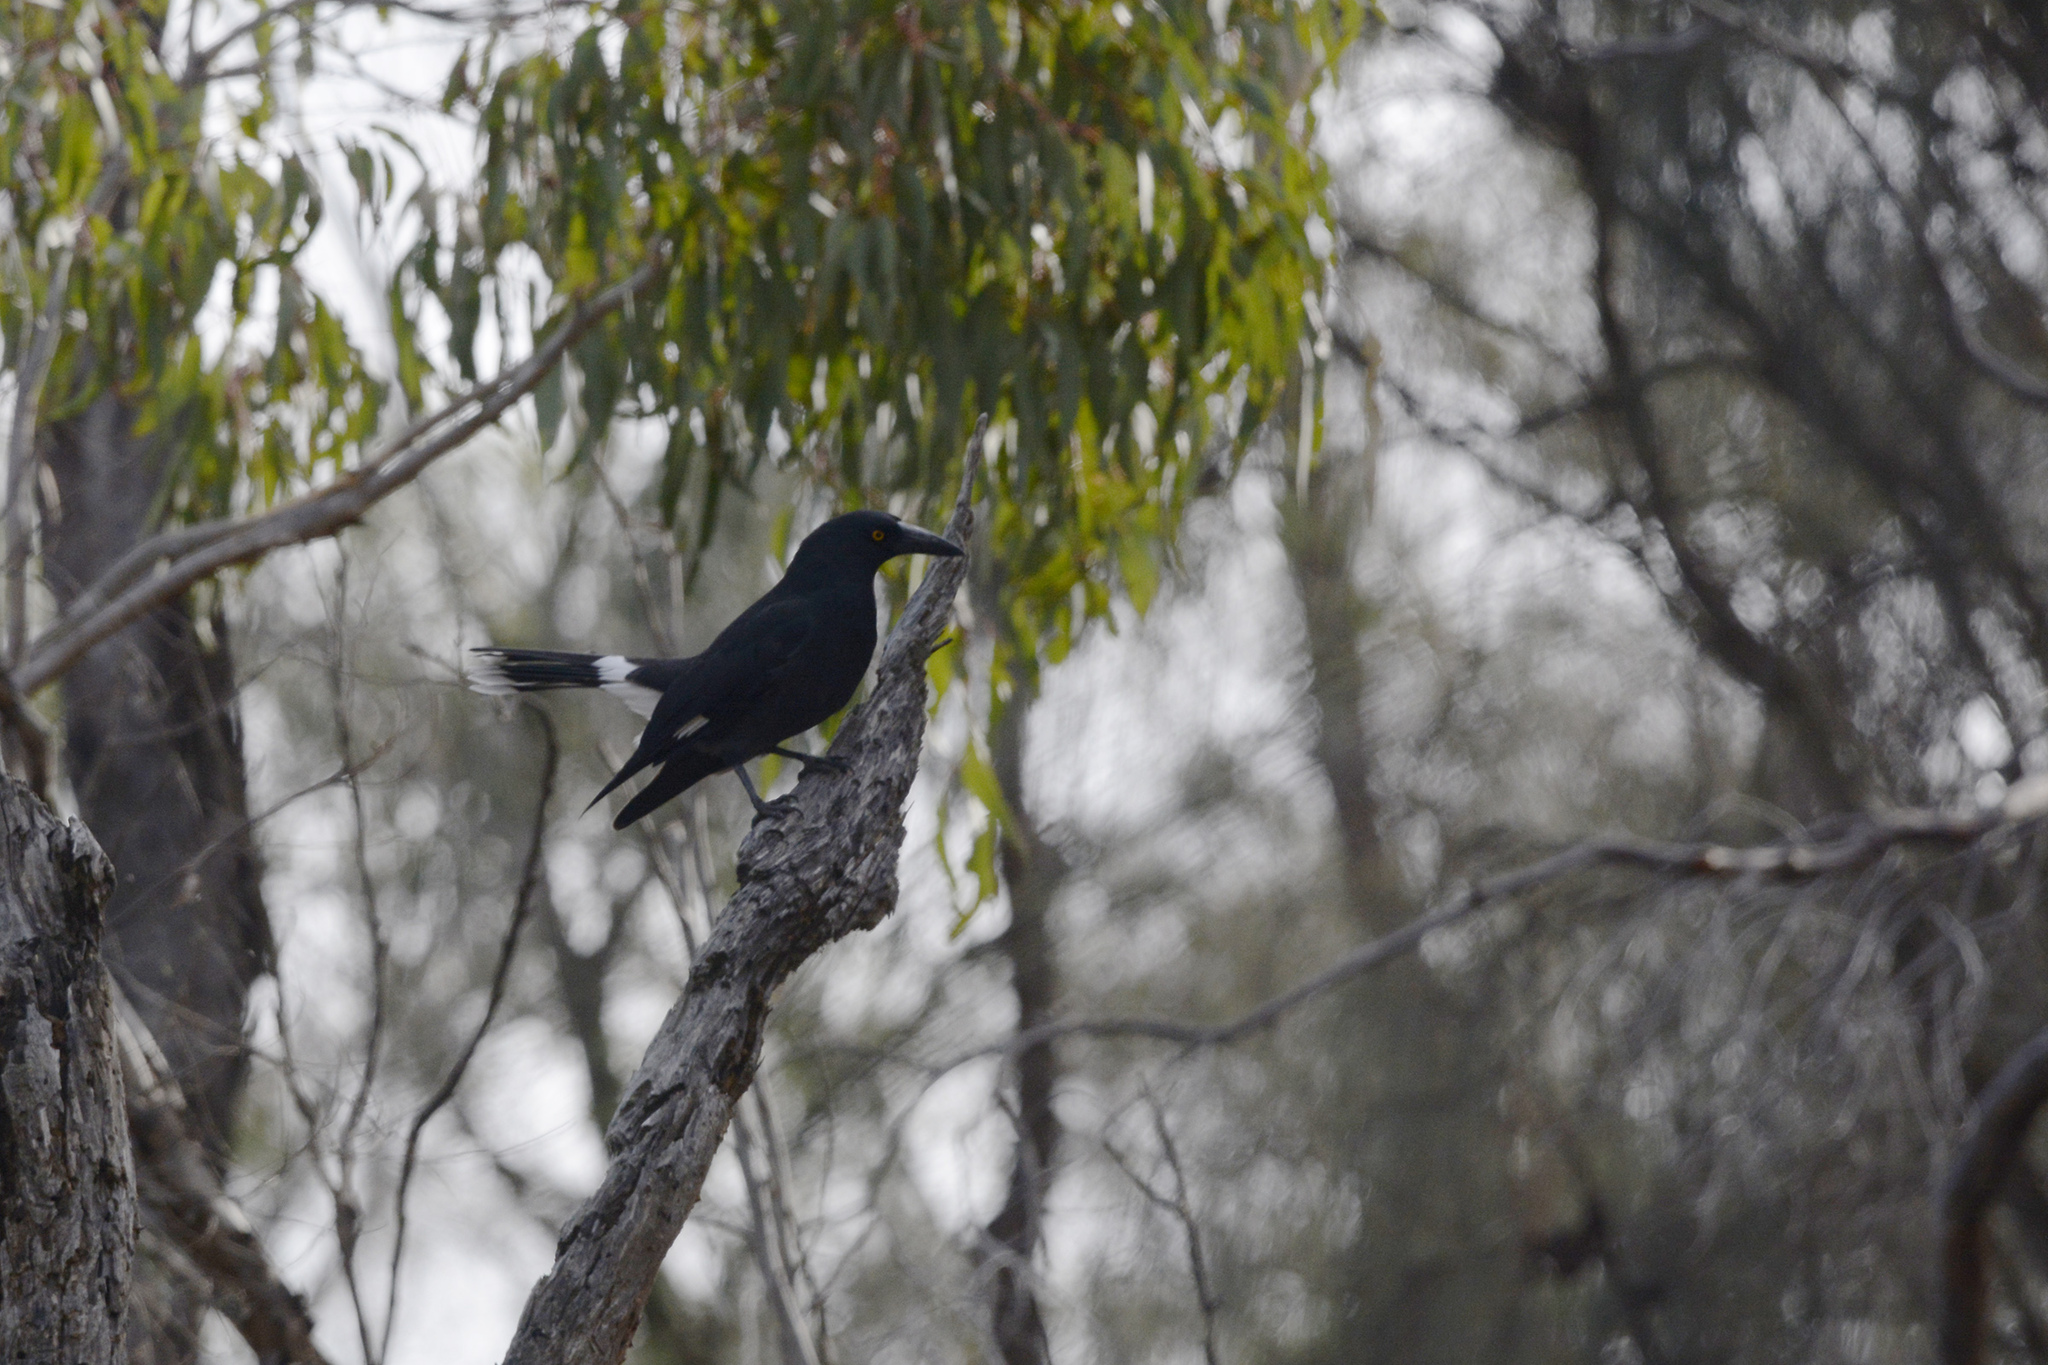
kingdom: Animalia
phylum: Chordata
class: Aves
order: Passeriformes
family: Cracticidae
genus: Strepera
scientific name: Strepera graculina
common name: Pied currawong
